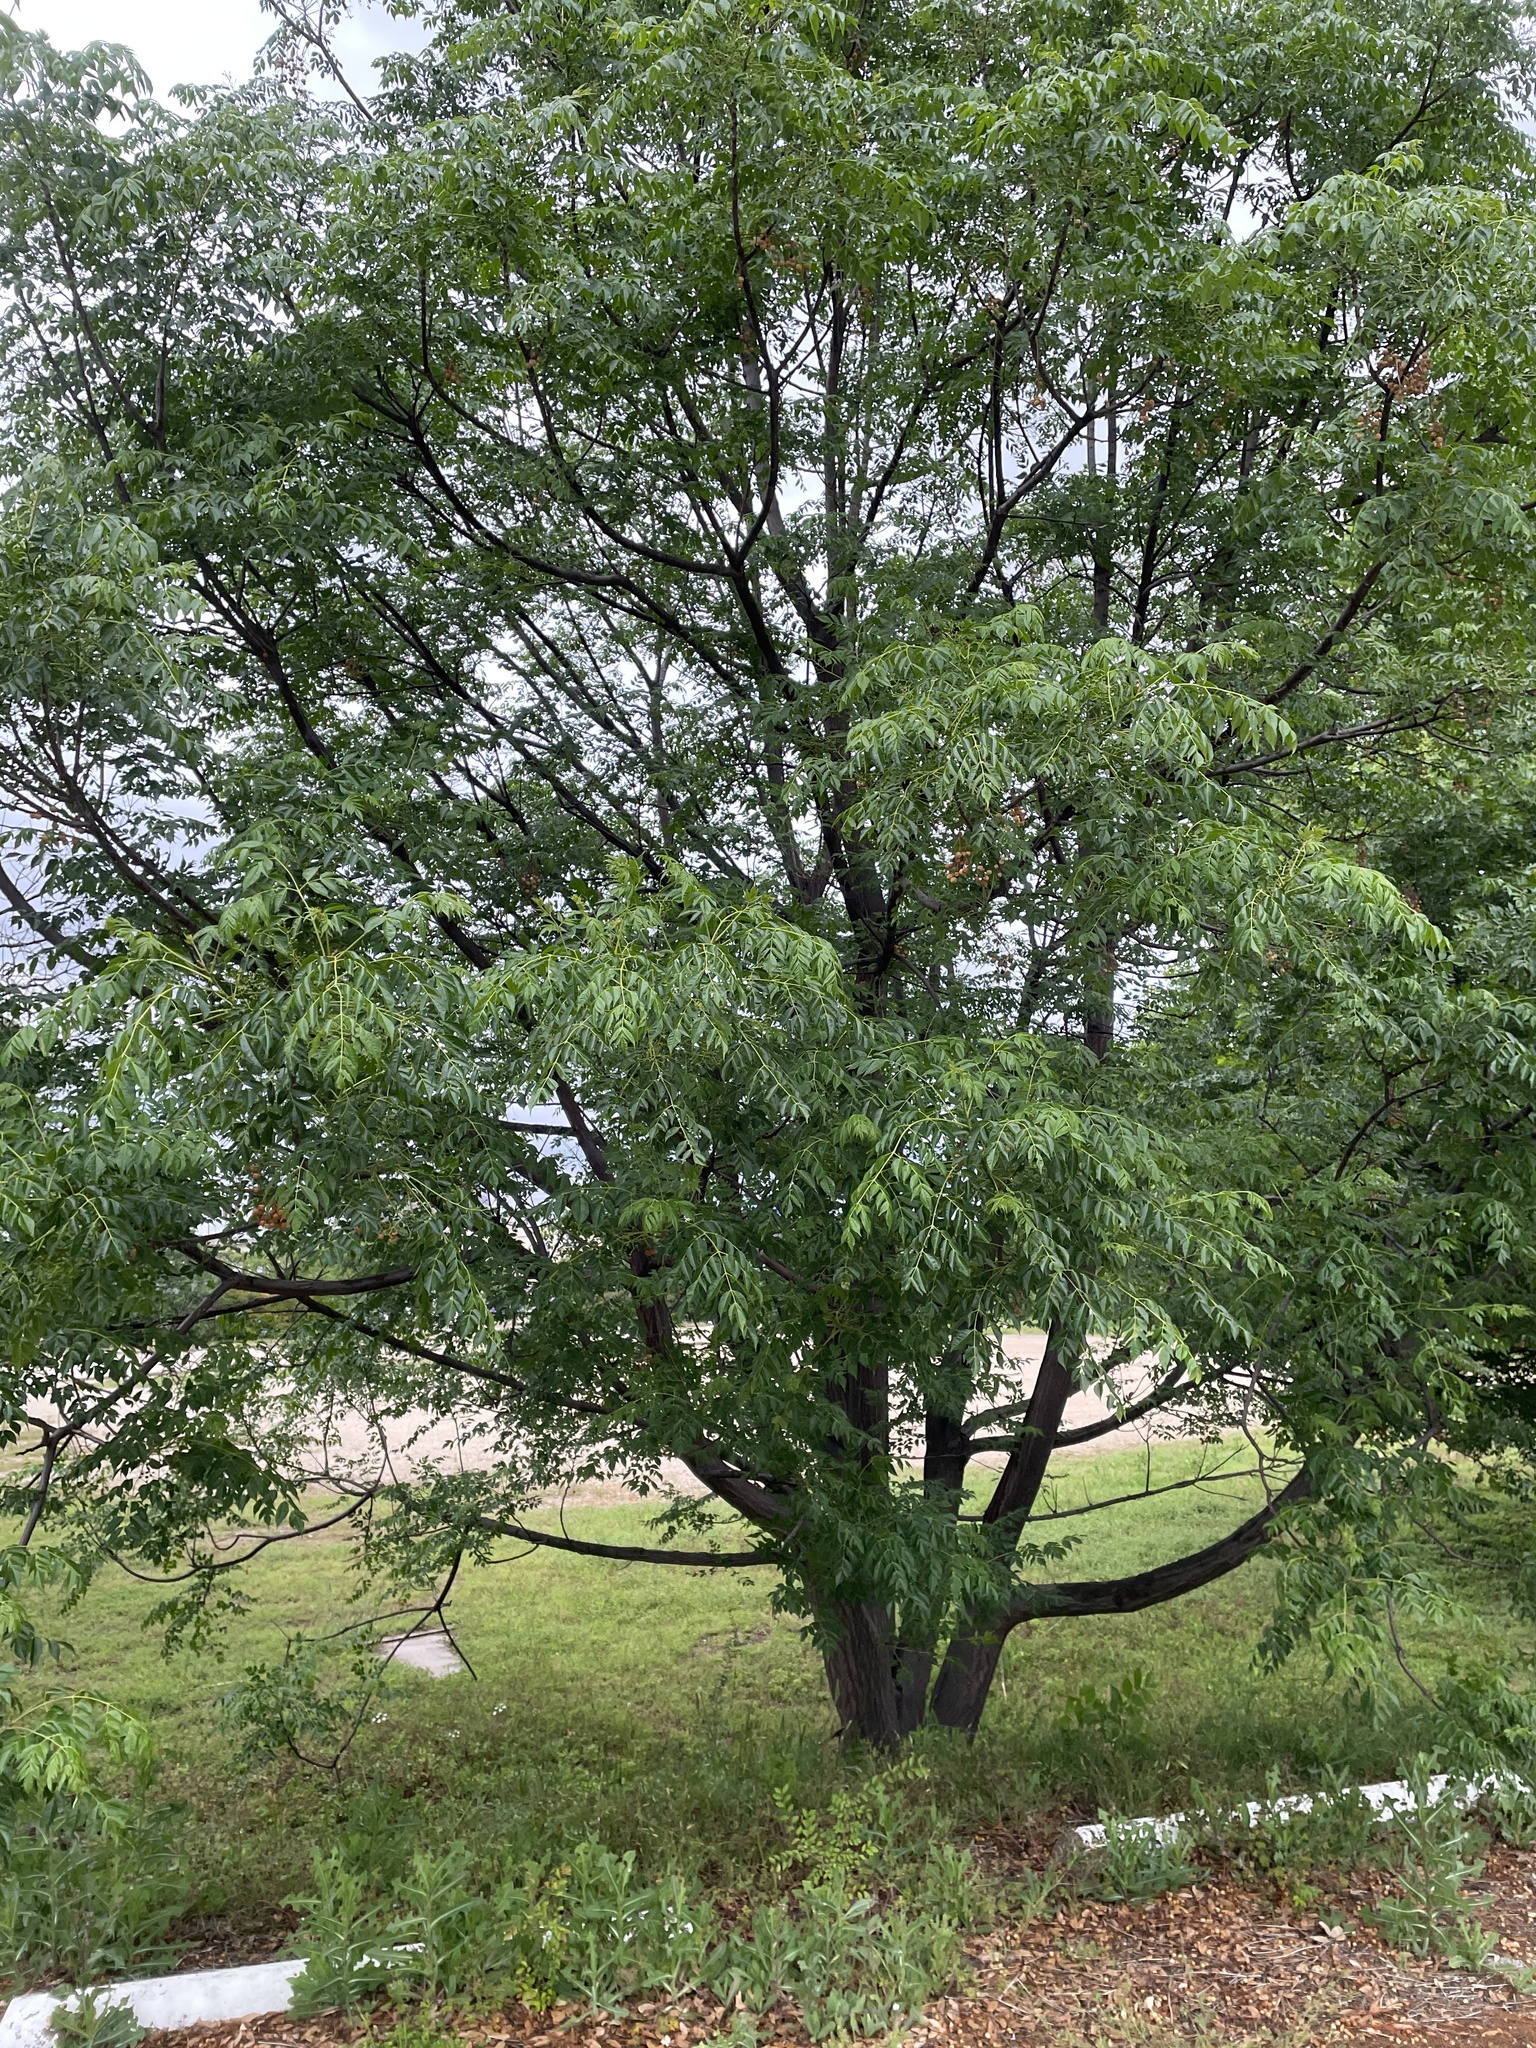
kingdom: Plantae
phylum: Tracheophyta
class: Magnoliopsida
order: Sapindales
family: Meliaceae
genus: Melia
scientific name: Melia azedarach
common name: Chinaberrytree
